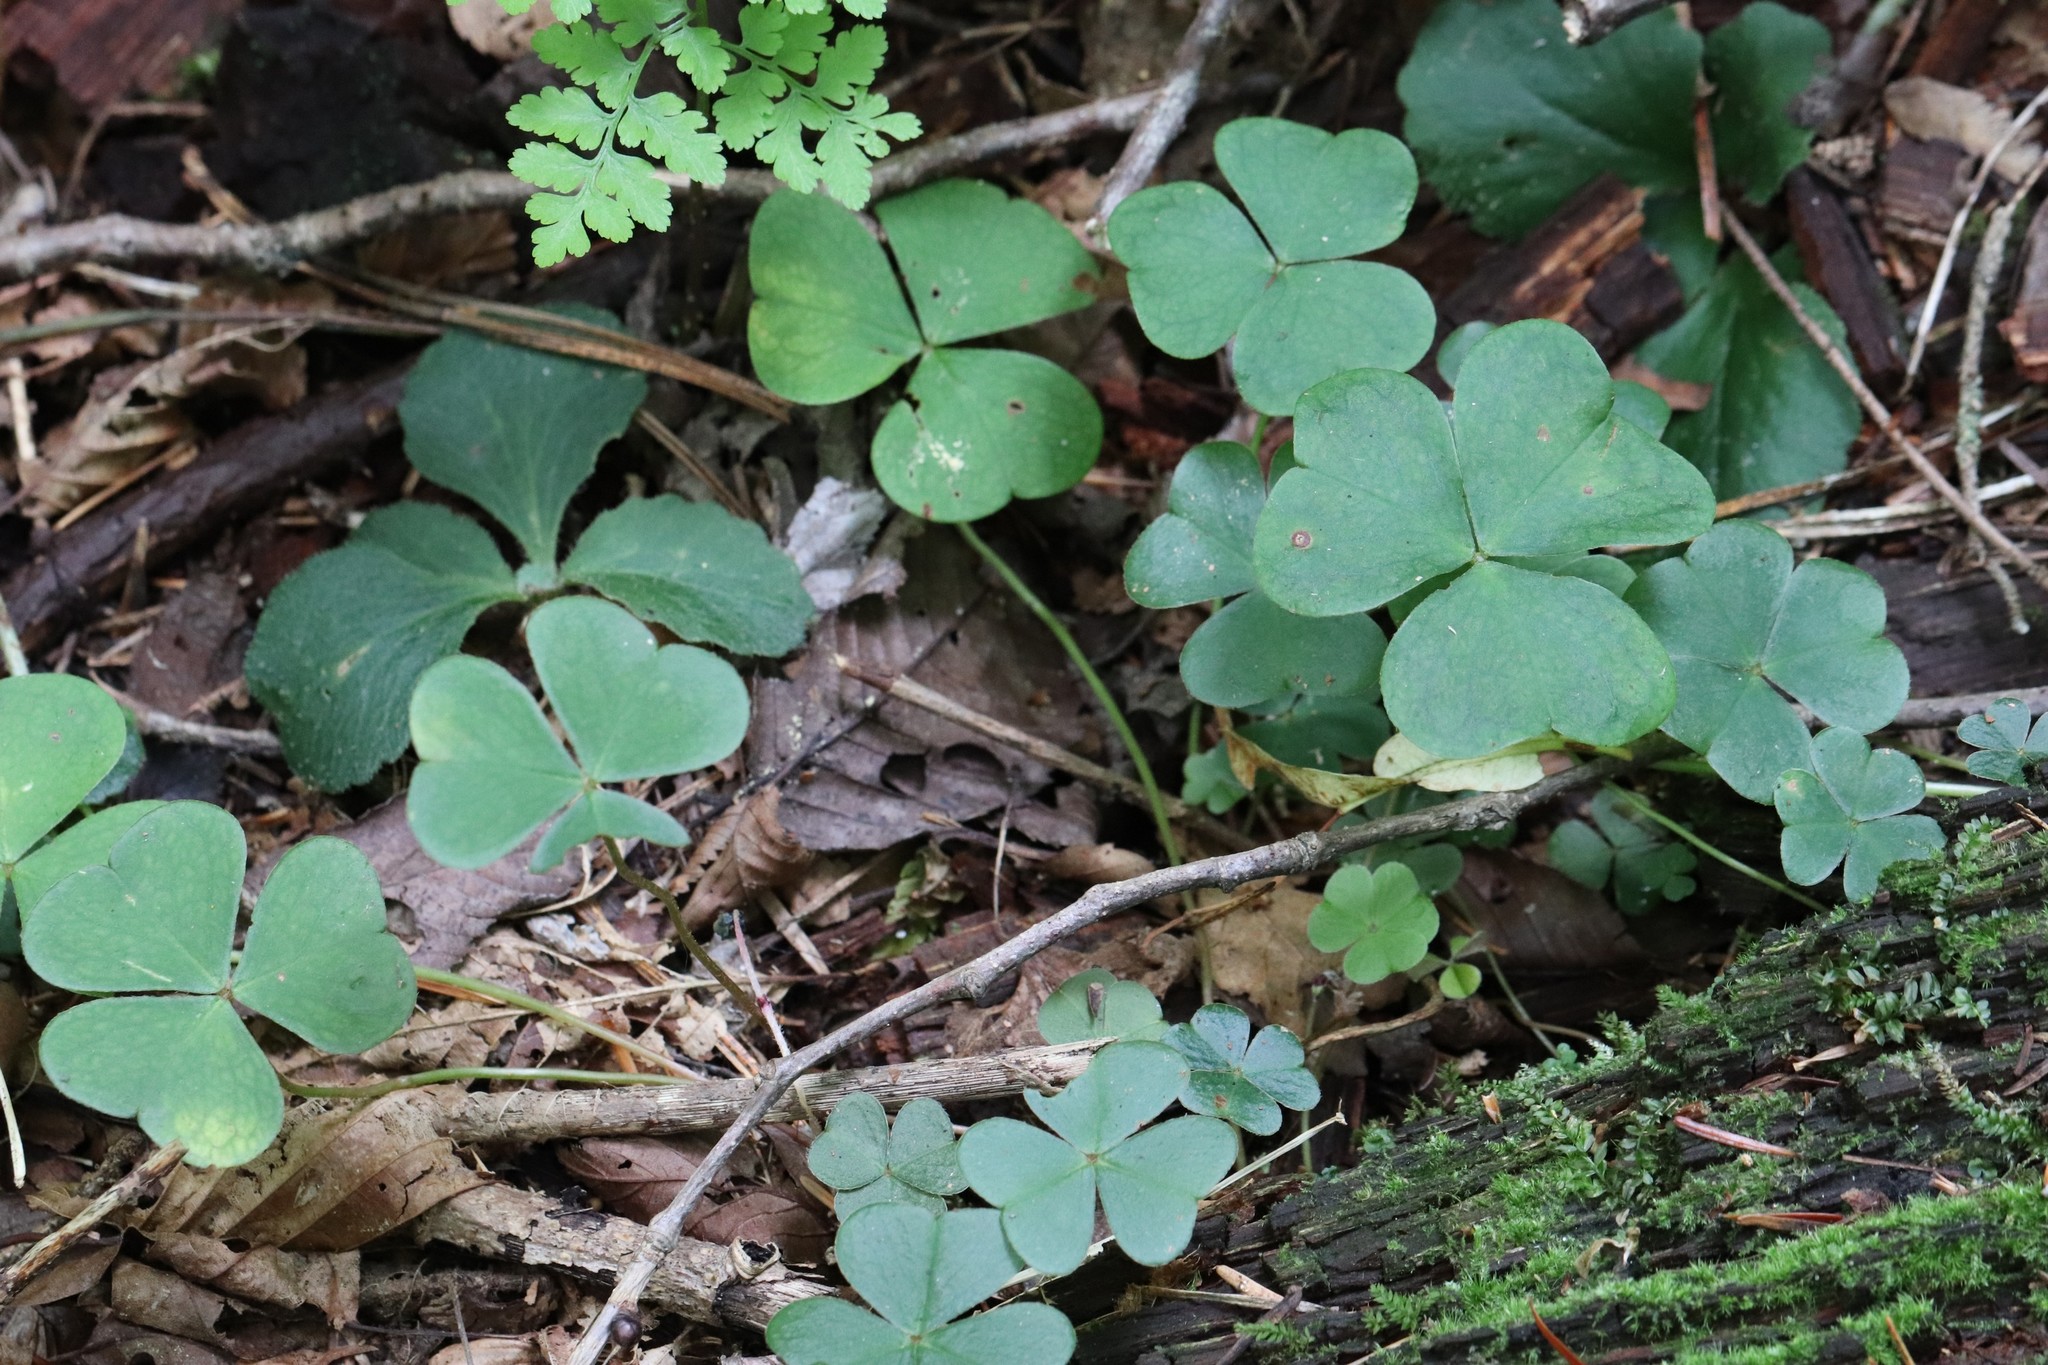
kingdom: Plantae
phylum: Tracheophyta
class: Magnoliopsida
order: Oxalidales
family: Oxalidaceae
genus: Oxalis
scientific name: Oxalis acetosella
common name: Wood-sorrel
